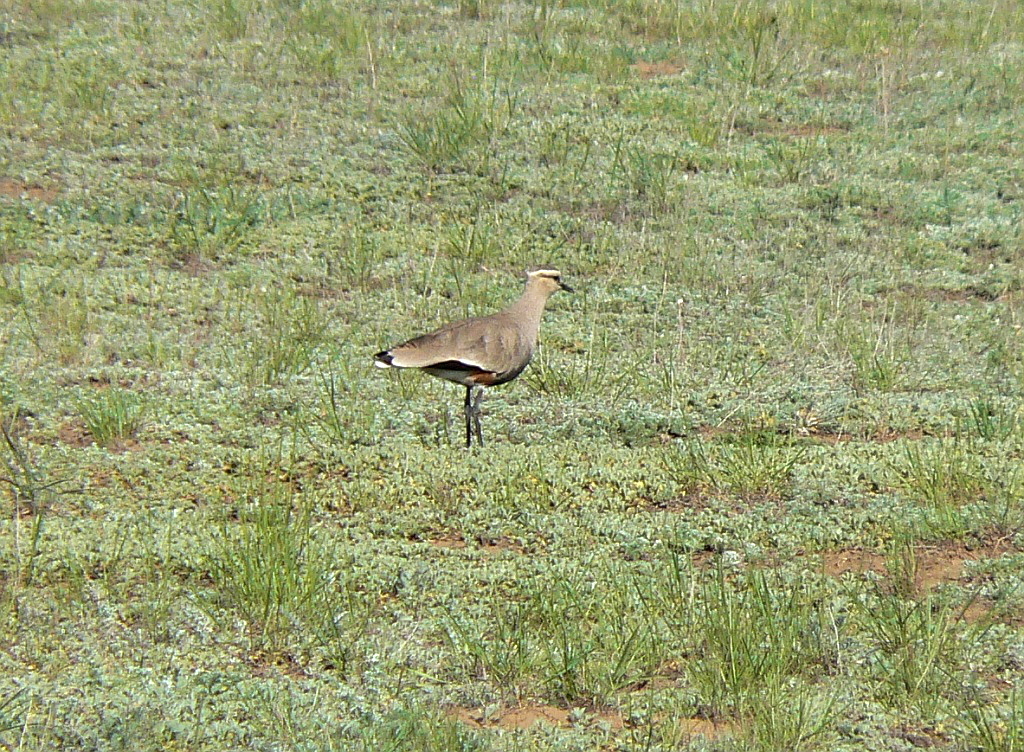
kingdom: Animalia
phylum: Chordata
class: Aves
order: Charadriiformes
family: Charadriidae
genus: Vanellus
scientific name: Vanellus gregarius
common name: Sociable lapwing
